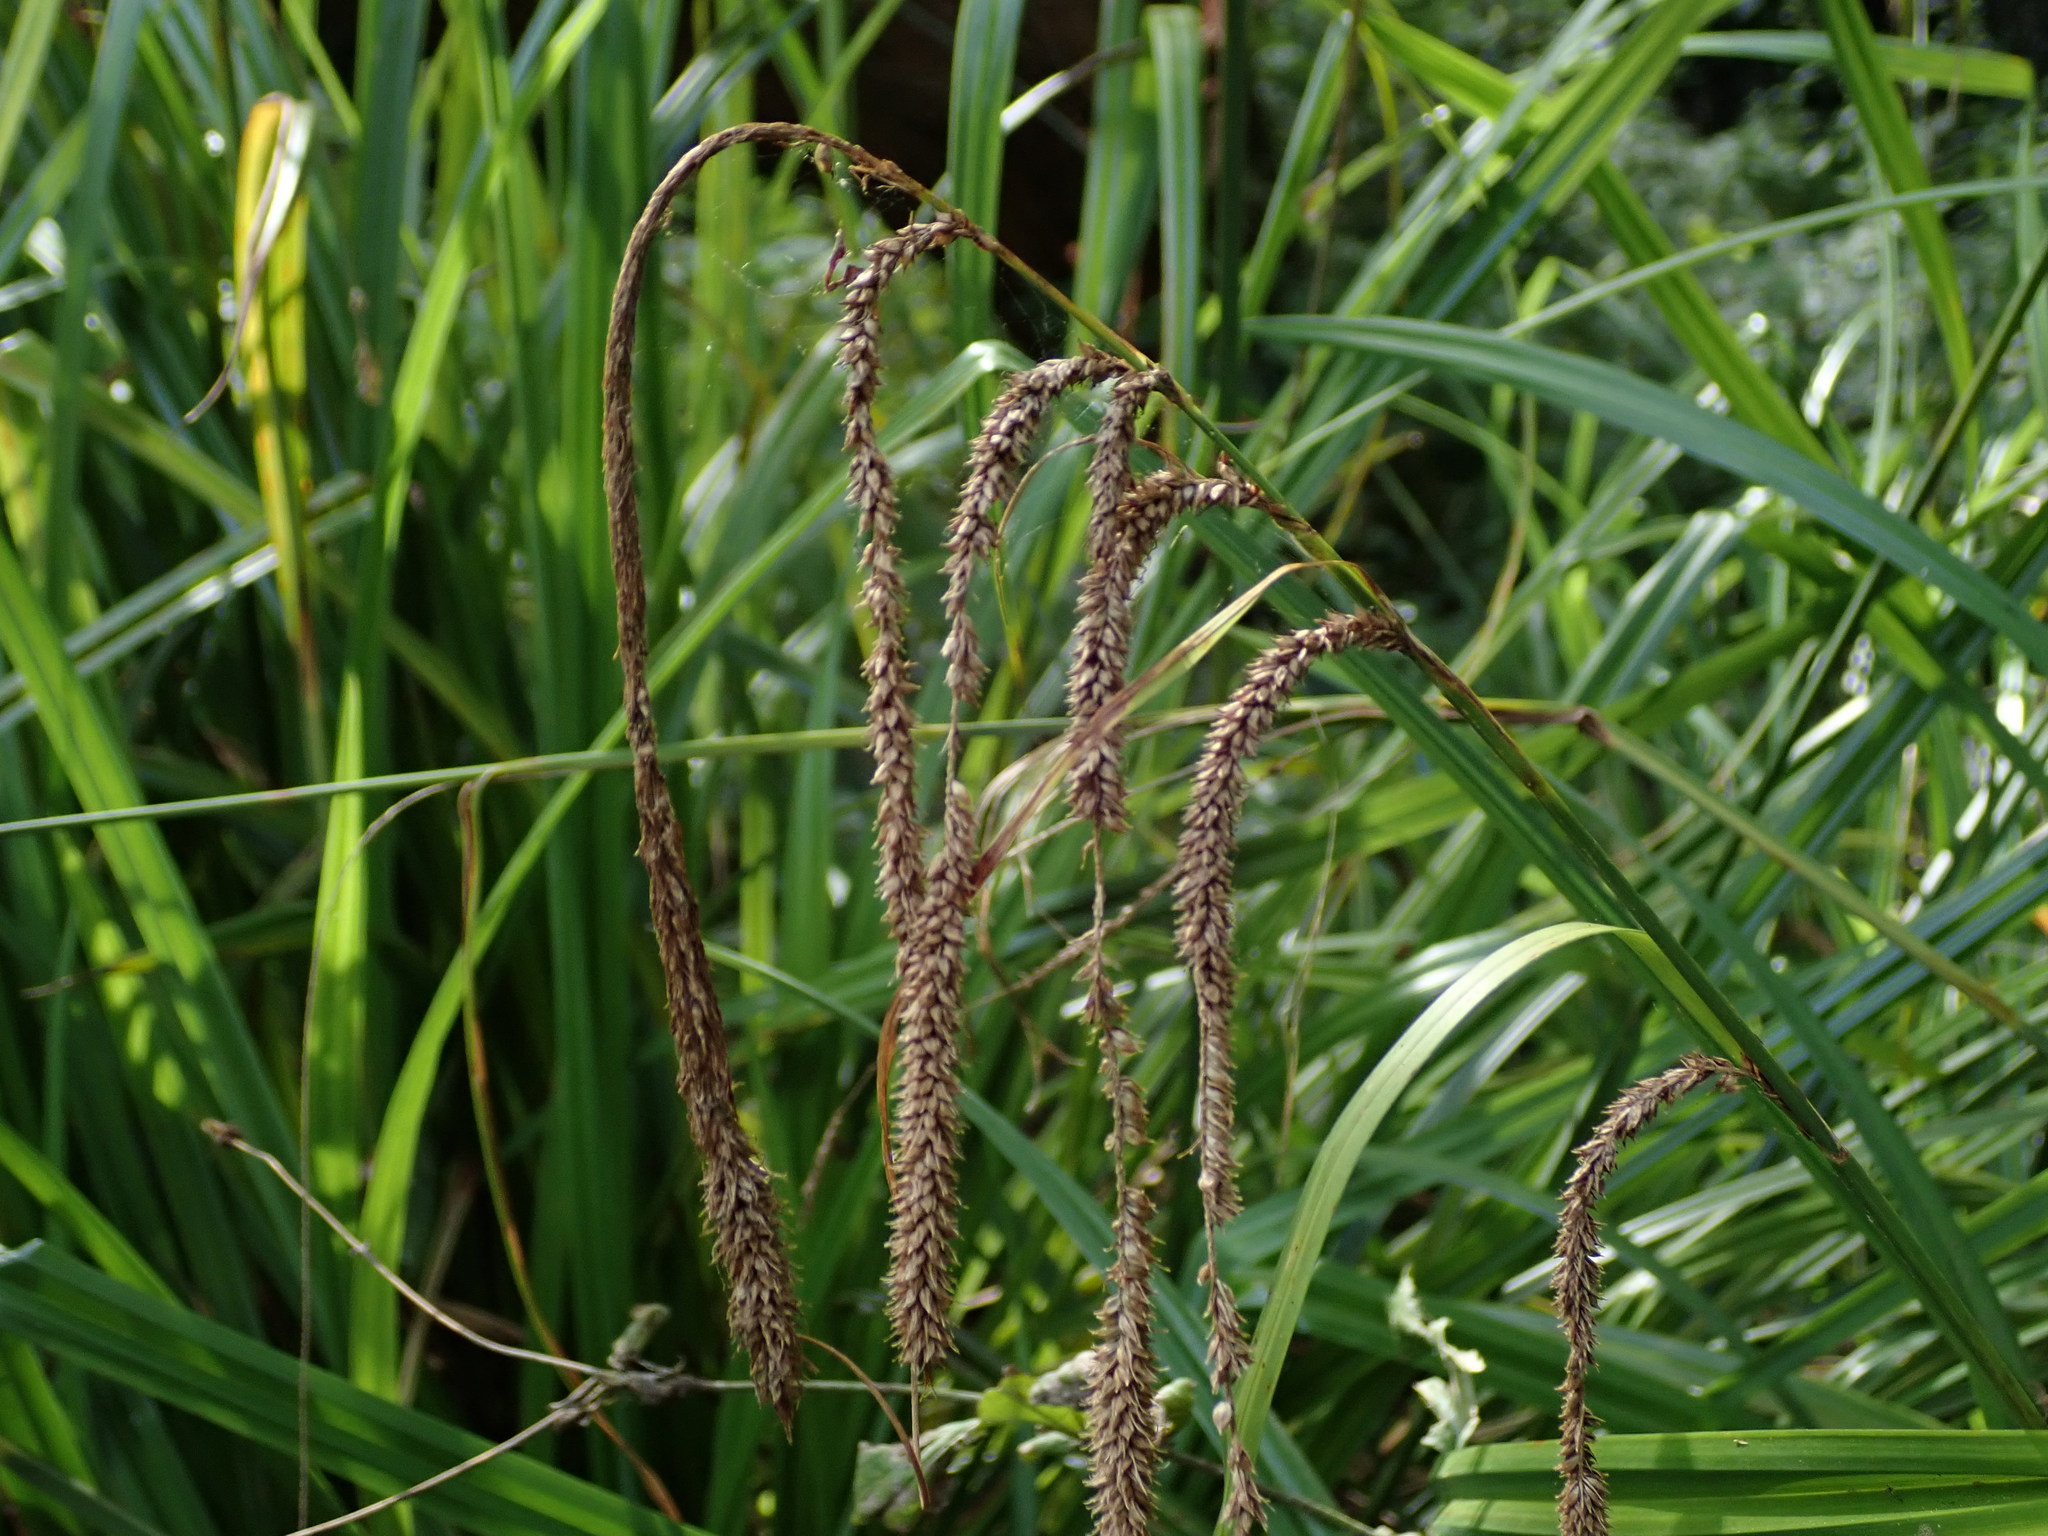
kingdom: Plantae
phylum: Tracheophyta
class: Liliopsida
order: Poales
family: Cyperaceae
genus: Carex
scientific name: Carex pendula
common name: Pendulous sedge
